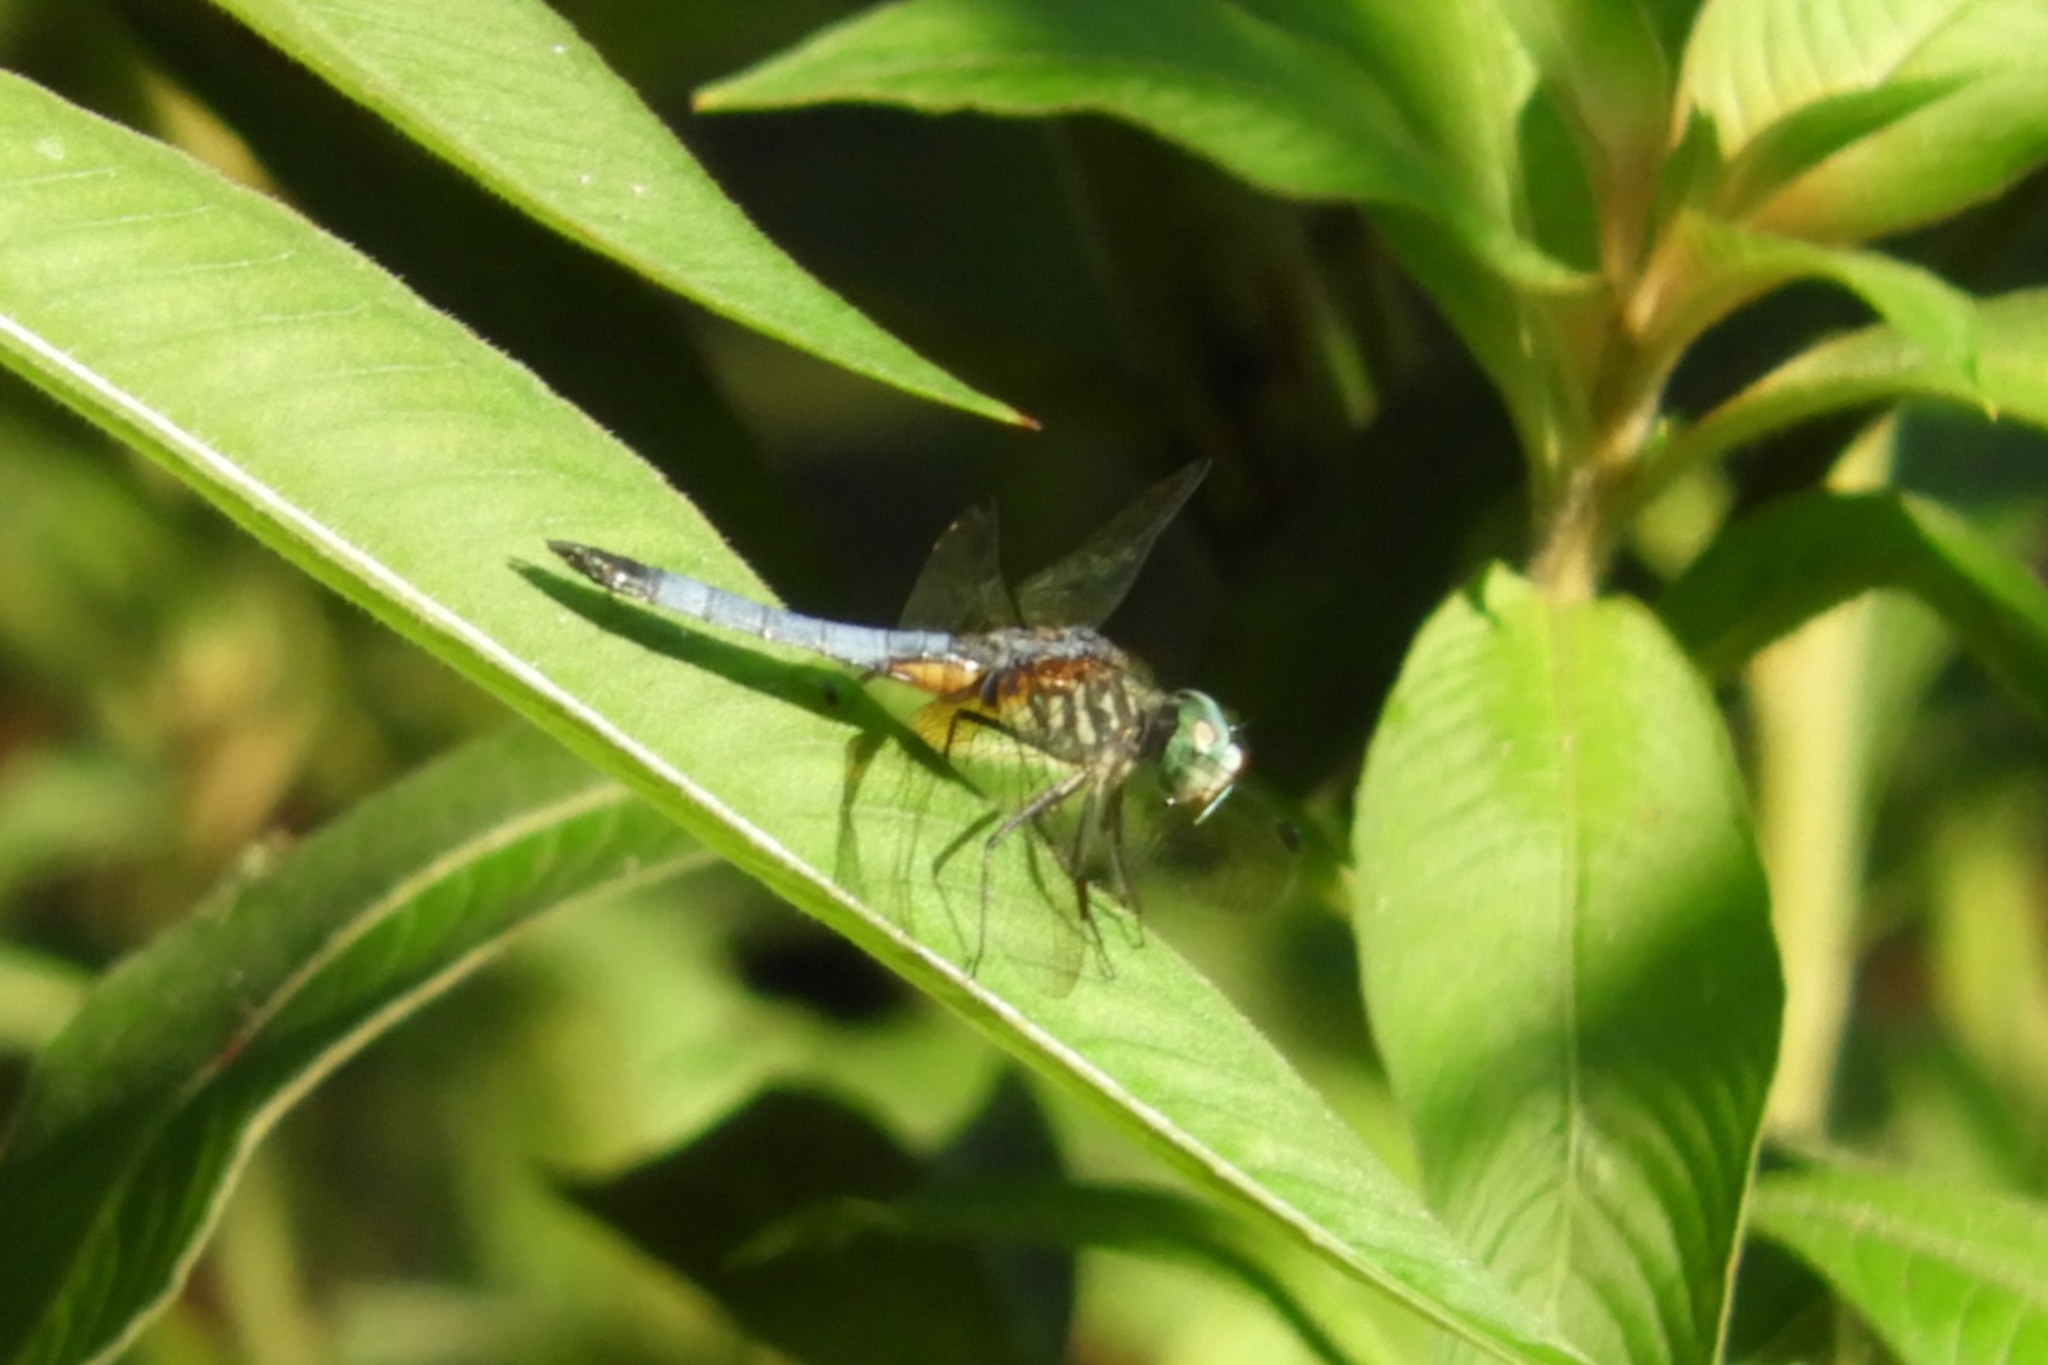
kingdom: Animalia
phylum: Arthropoda
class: Insecta
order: Odonata
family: Libellulidae
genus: Pachydiplax
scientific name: Pachydiplax longipennis
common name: Blue dasher
